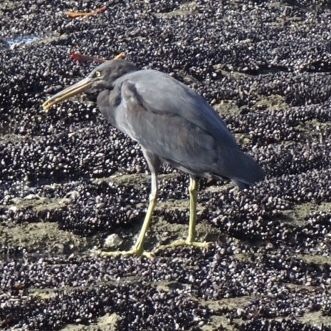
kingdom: Animalia
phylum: Chordata
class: Aves
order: Pelecaniformes
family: Ardeidae
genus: Egretta
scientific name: Egretta sacra
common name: Pacific reef heron
